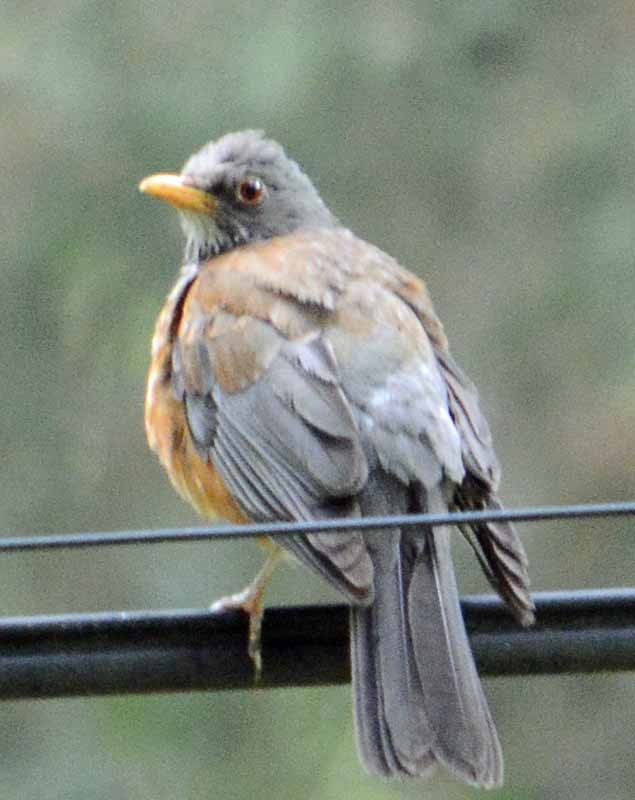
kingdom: Animalia
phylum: Chordata
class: Aves
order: Passeriformes
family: Turdidae
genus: Turdus
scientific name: Turdus rufopalliatus
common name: Rufous-backed robin
